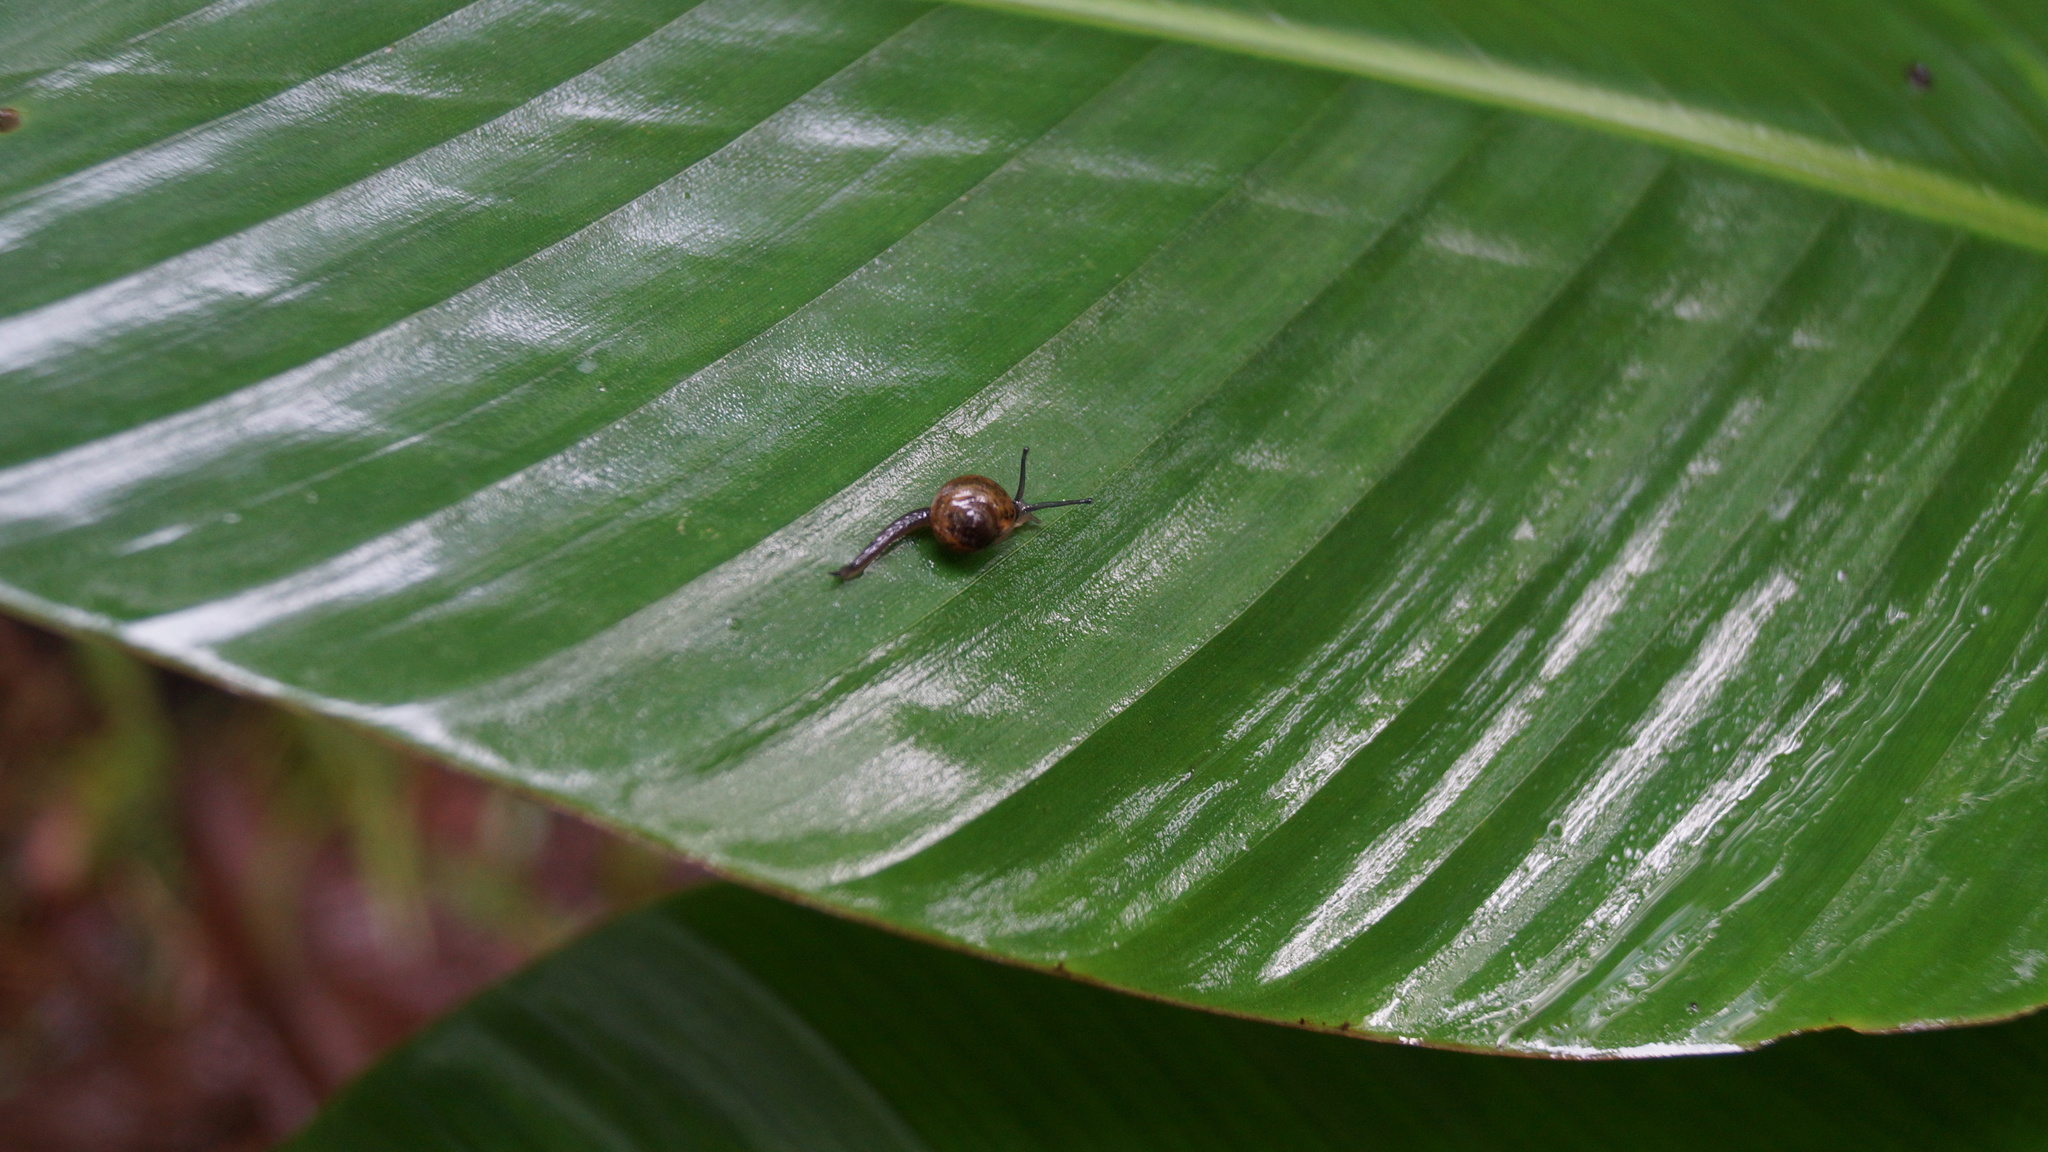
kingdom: Animalia
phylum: Mollusca
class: Gastropoda
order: Stylommatophora
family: Helicarionidae
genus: Ovachlamys
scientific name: Ovachlamys fulgens
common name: Jumping snail
